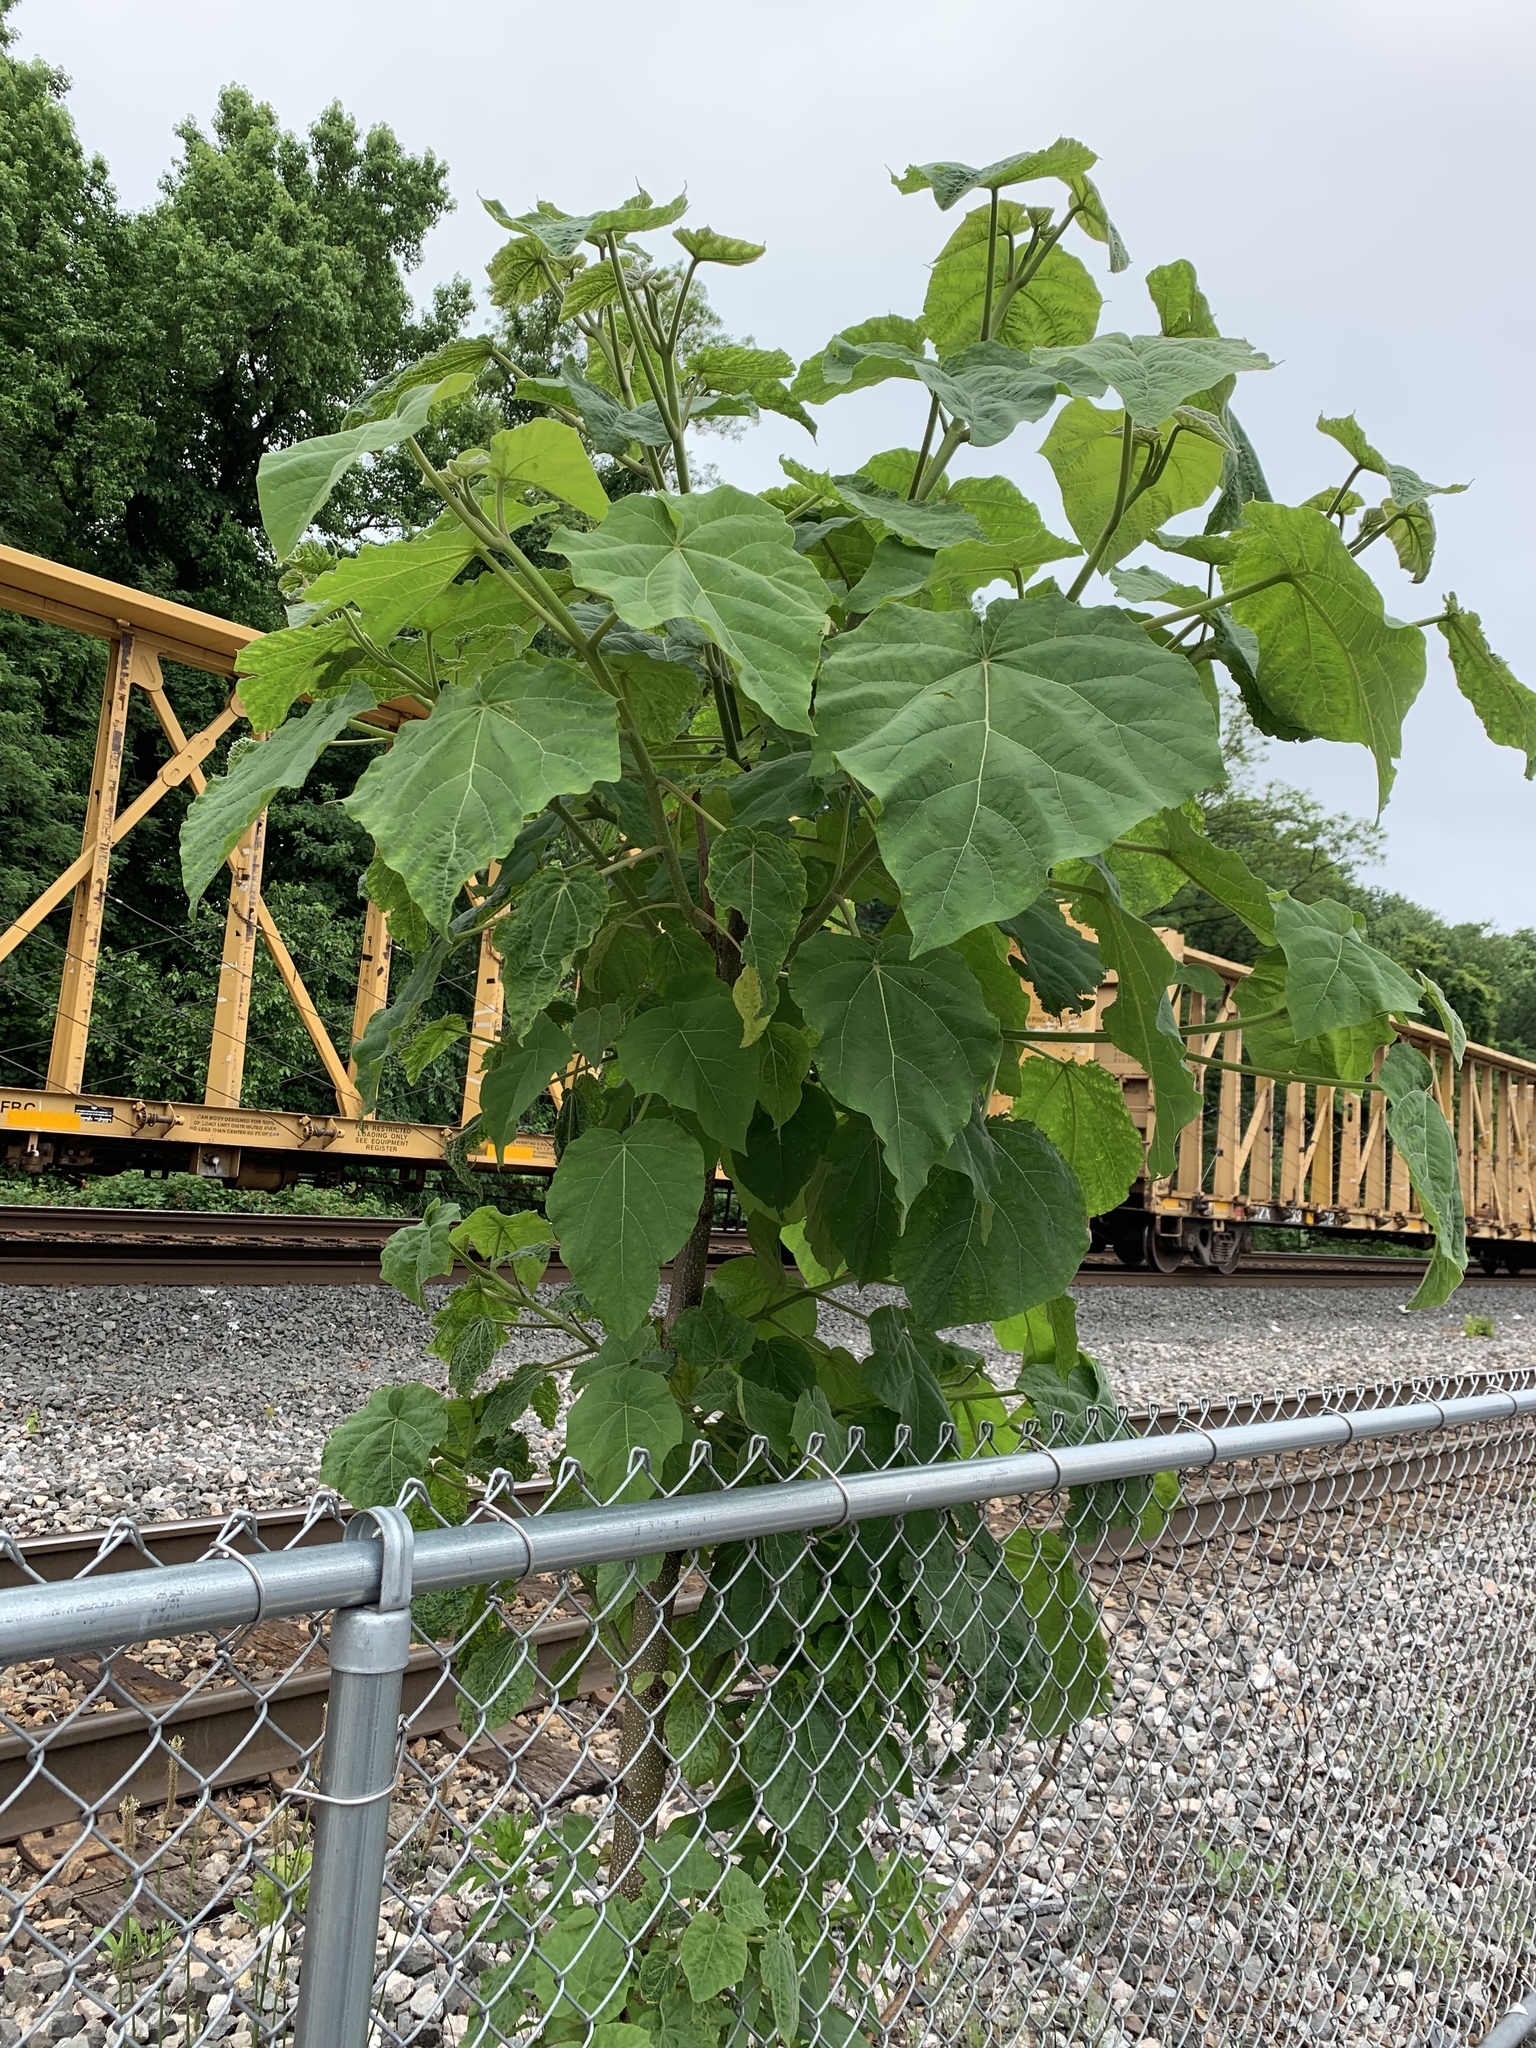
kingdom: Plantae
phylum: Tracheophyta
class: Magnoliopsida
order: Lamiales
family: Paulowniaceae
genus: Paulownia
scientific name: Paulownia tomentosa
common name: Foxglove-tree
